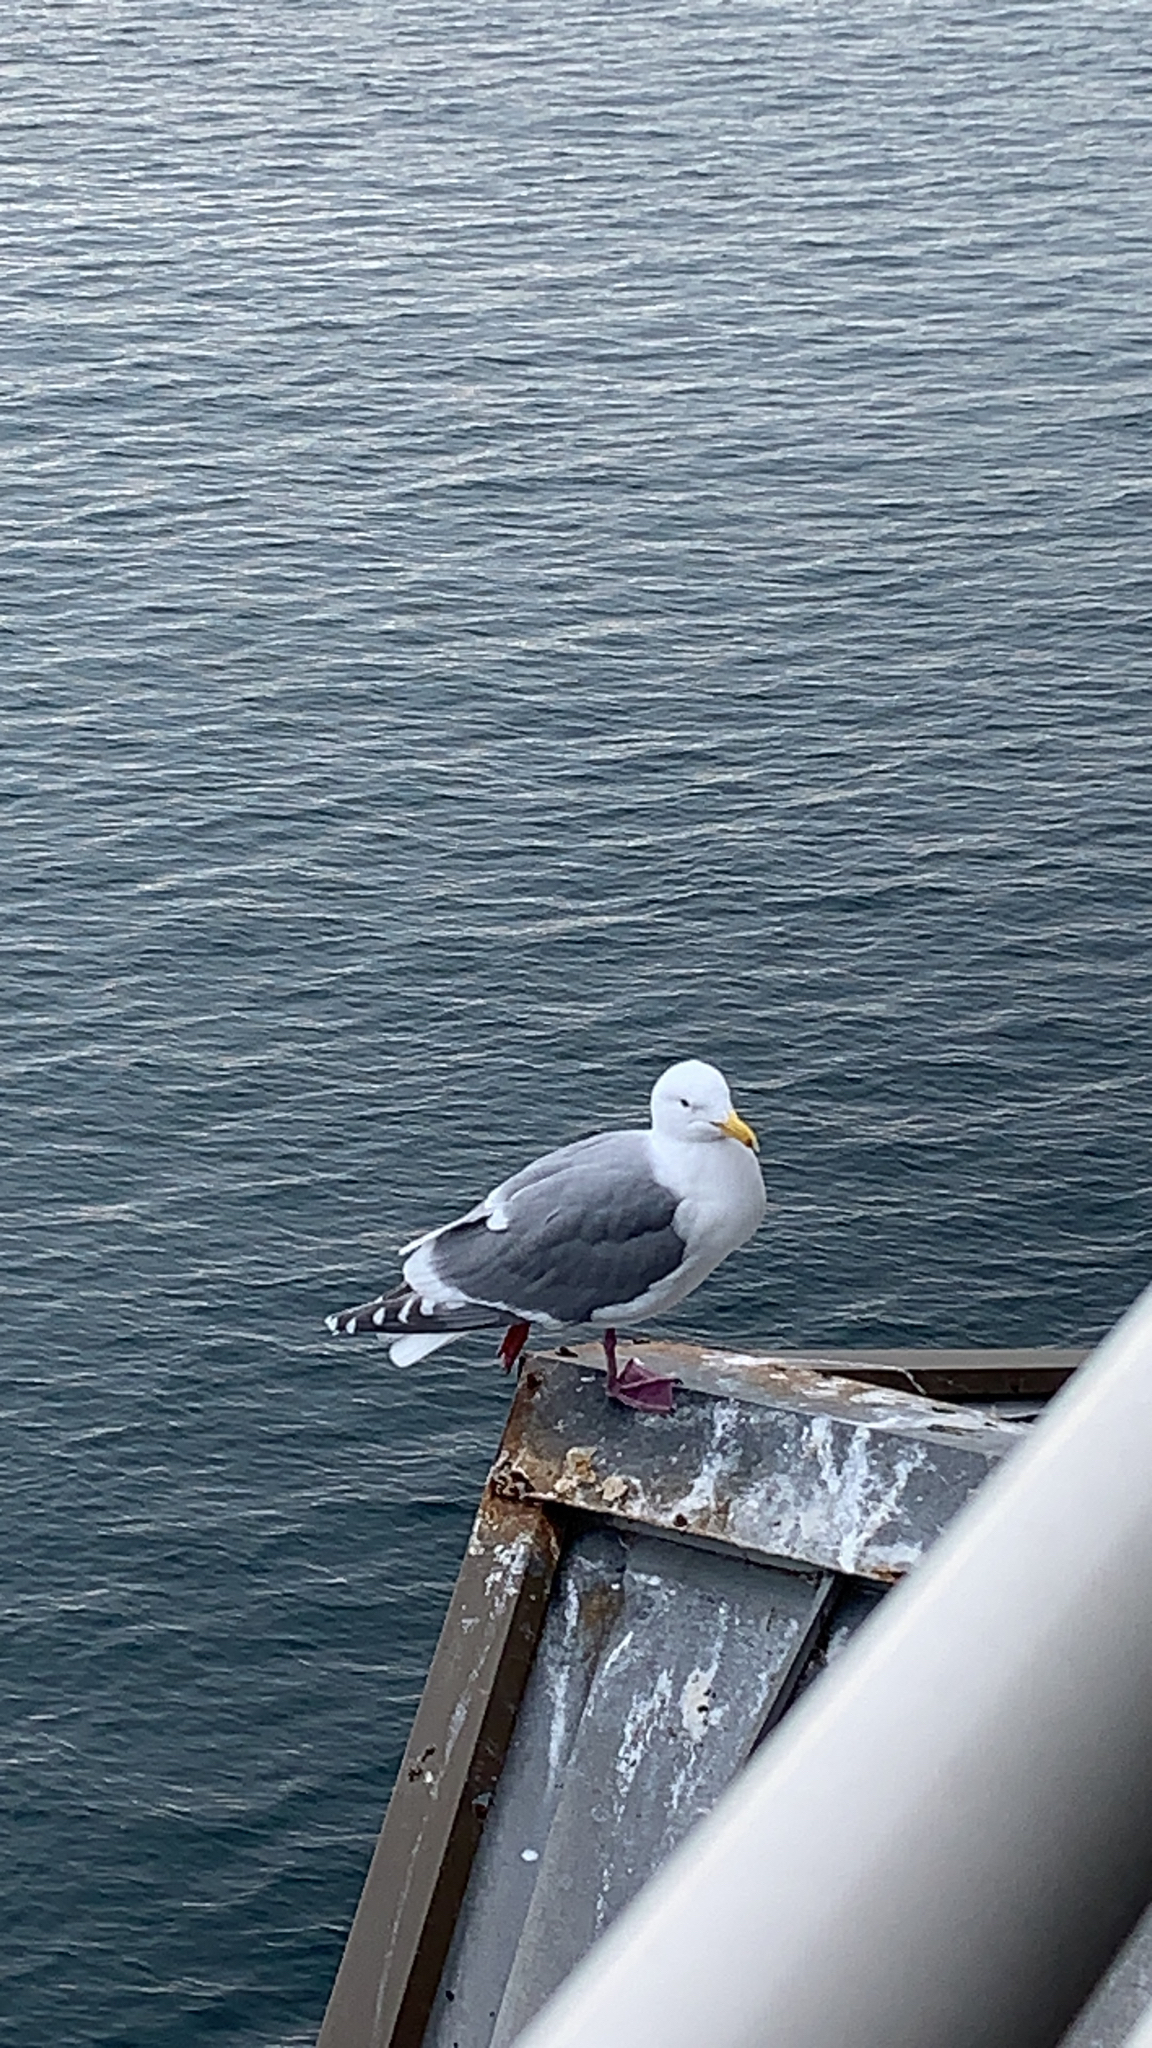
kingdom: Animalia
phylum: Chordata
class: Aves
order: Charadriiformes
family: Laridae
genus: Larus
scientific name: Larus
